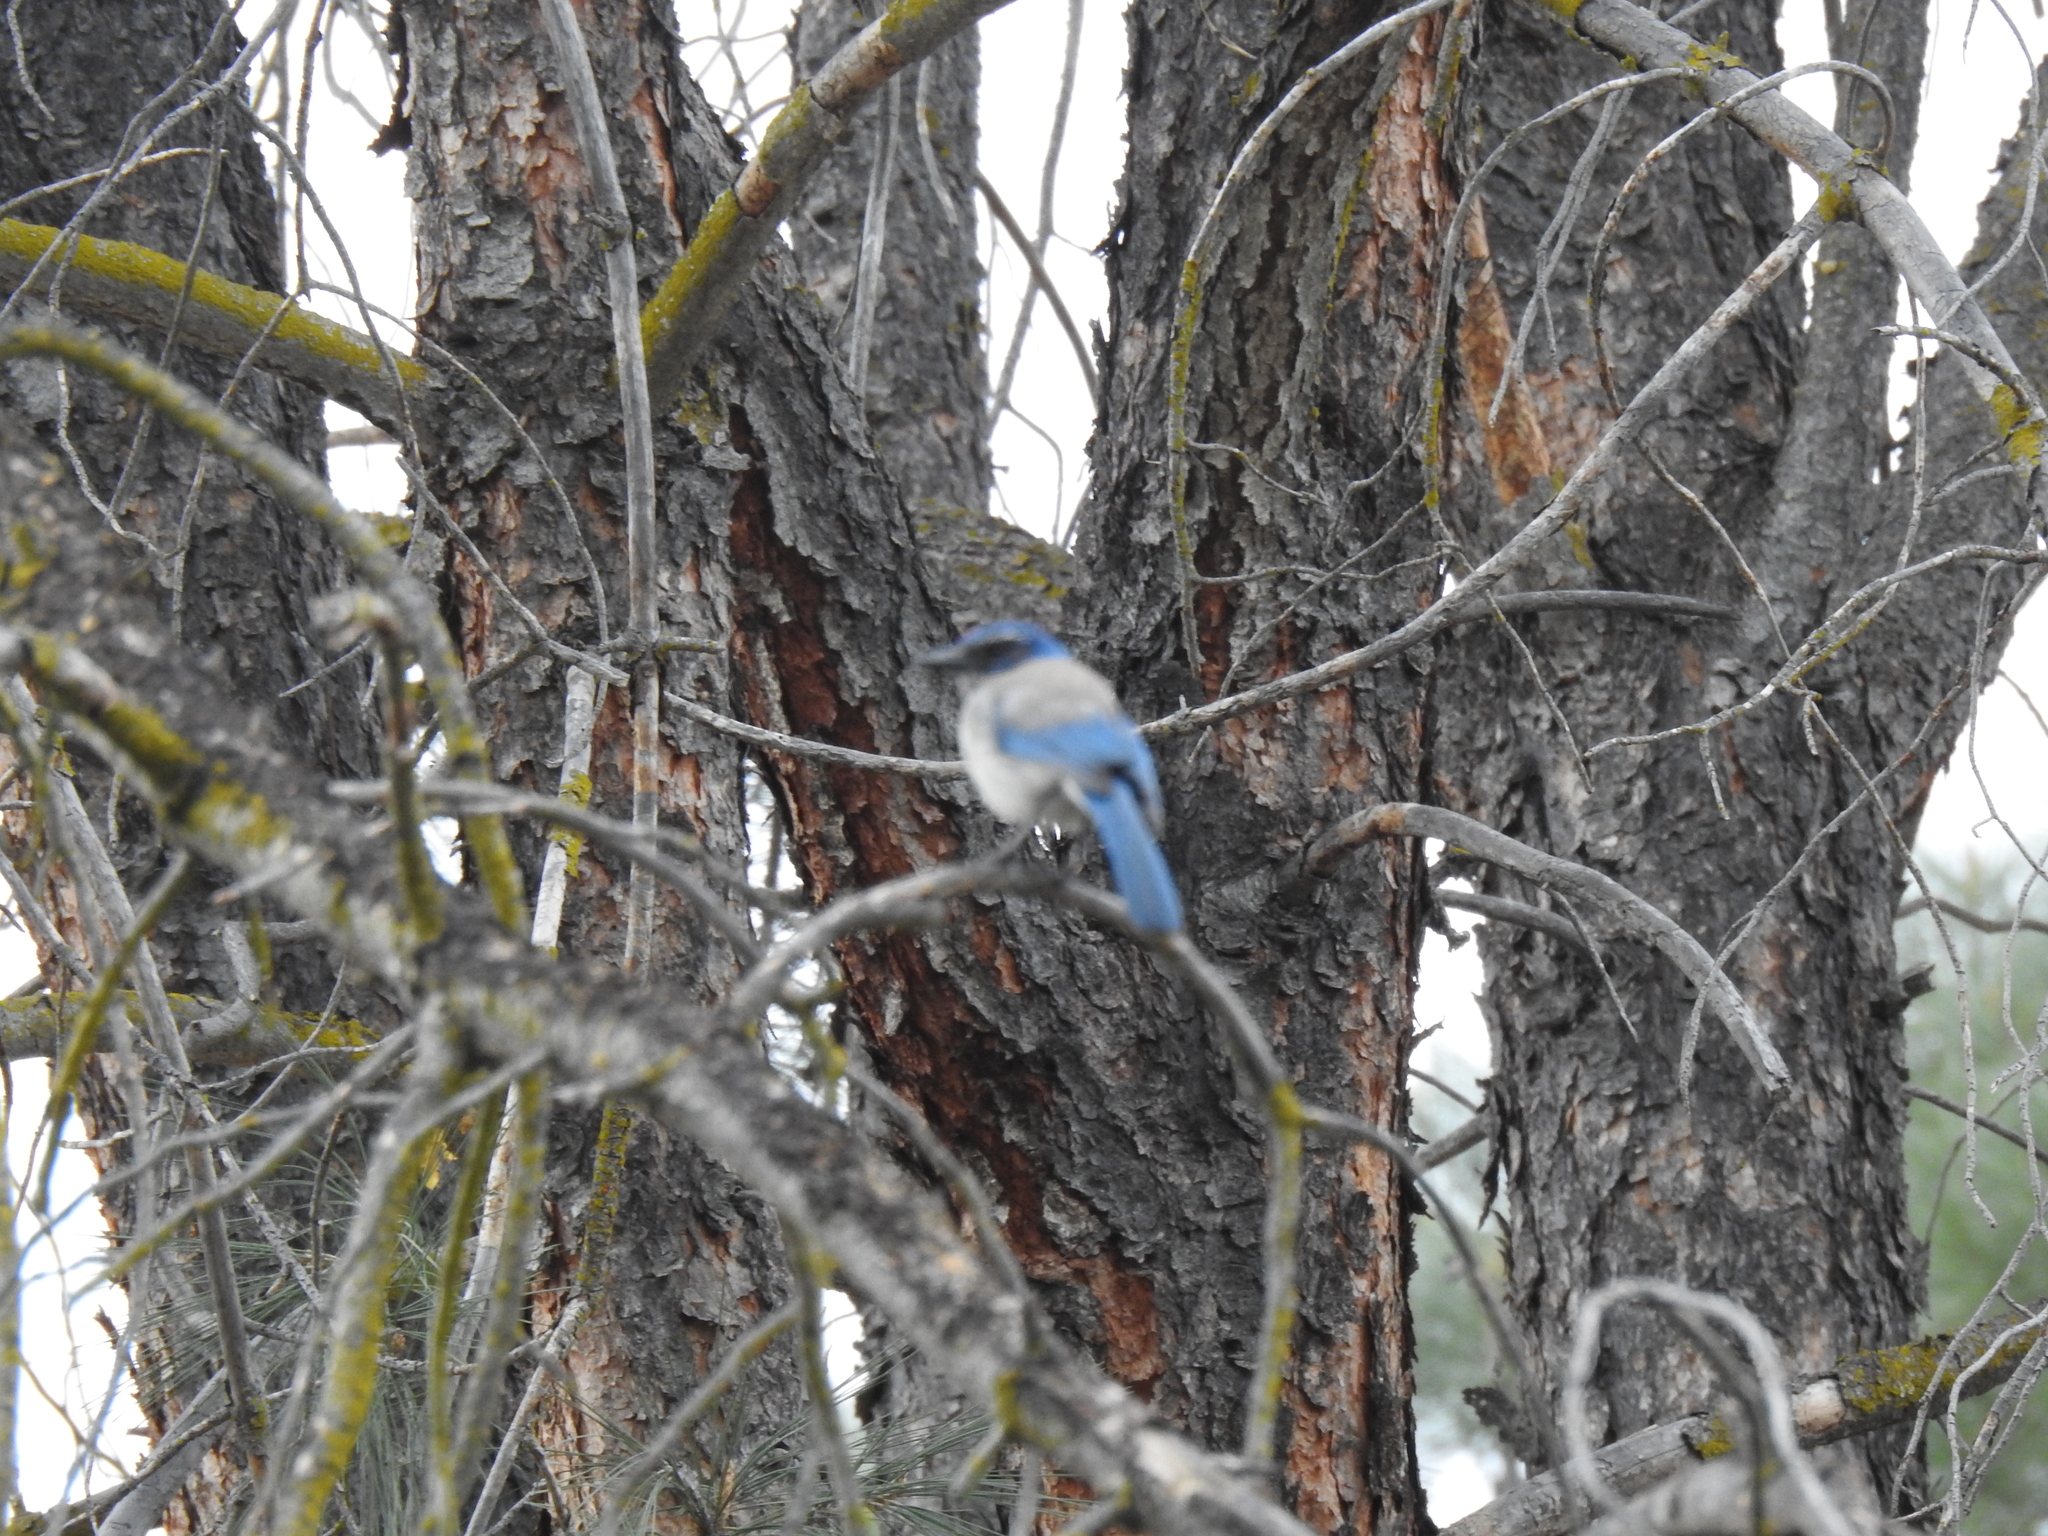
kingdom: Animalia
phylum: Chordata
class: Aves
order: Passeriformes
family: Corvidae
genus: Aphelocoma
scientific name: Aphelocoma californica
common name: California scrub-jay
